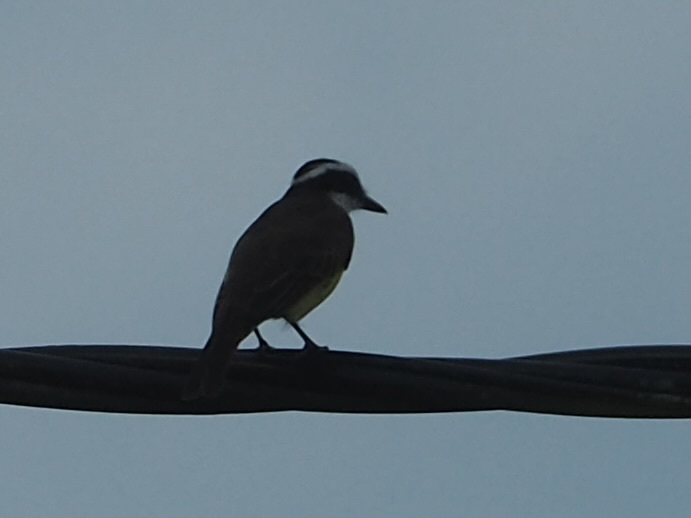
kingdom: Animalia
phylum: Chordata
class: Aves
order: Passeriformes
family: Tyrannidae
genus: Pitangus
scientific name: Pitangus sulphuratus
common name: Great kiskadee
